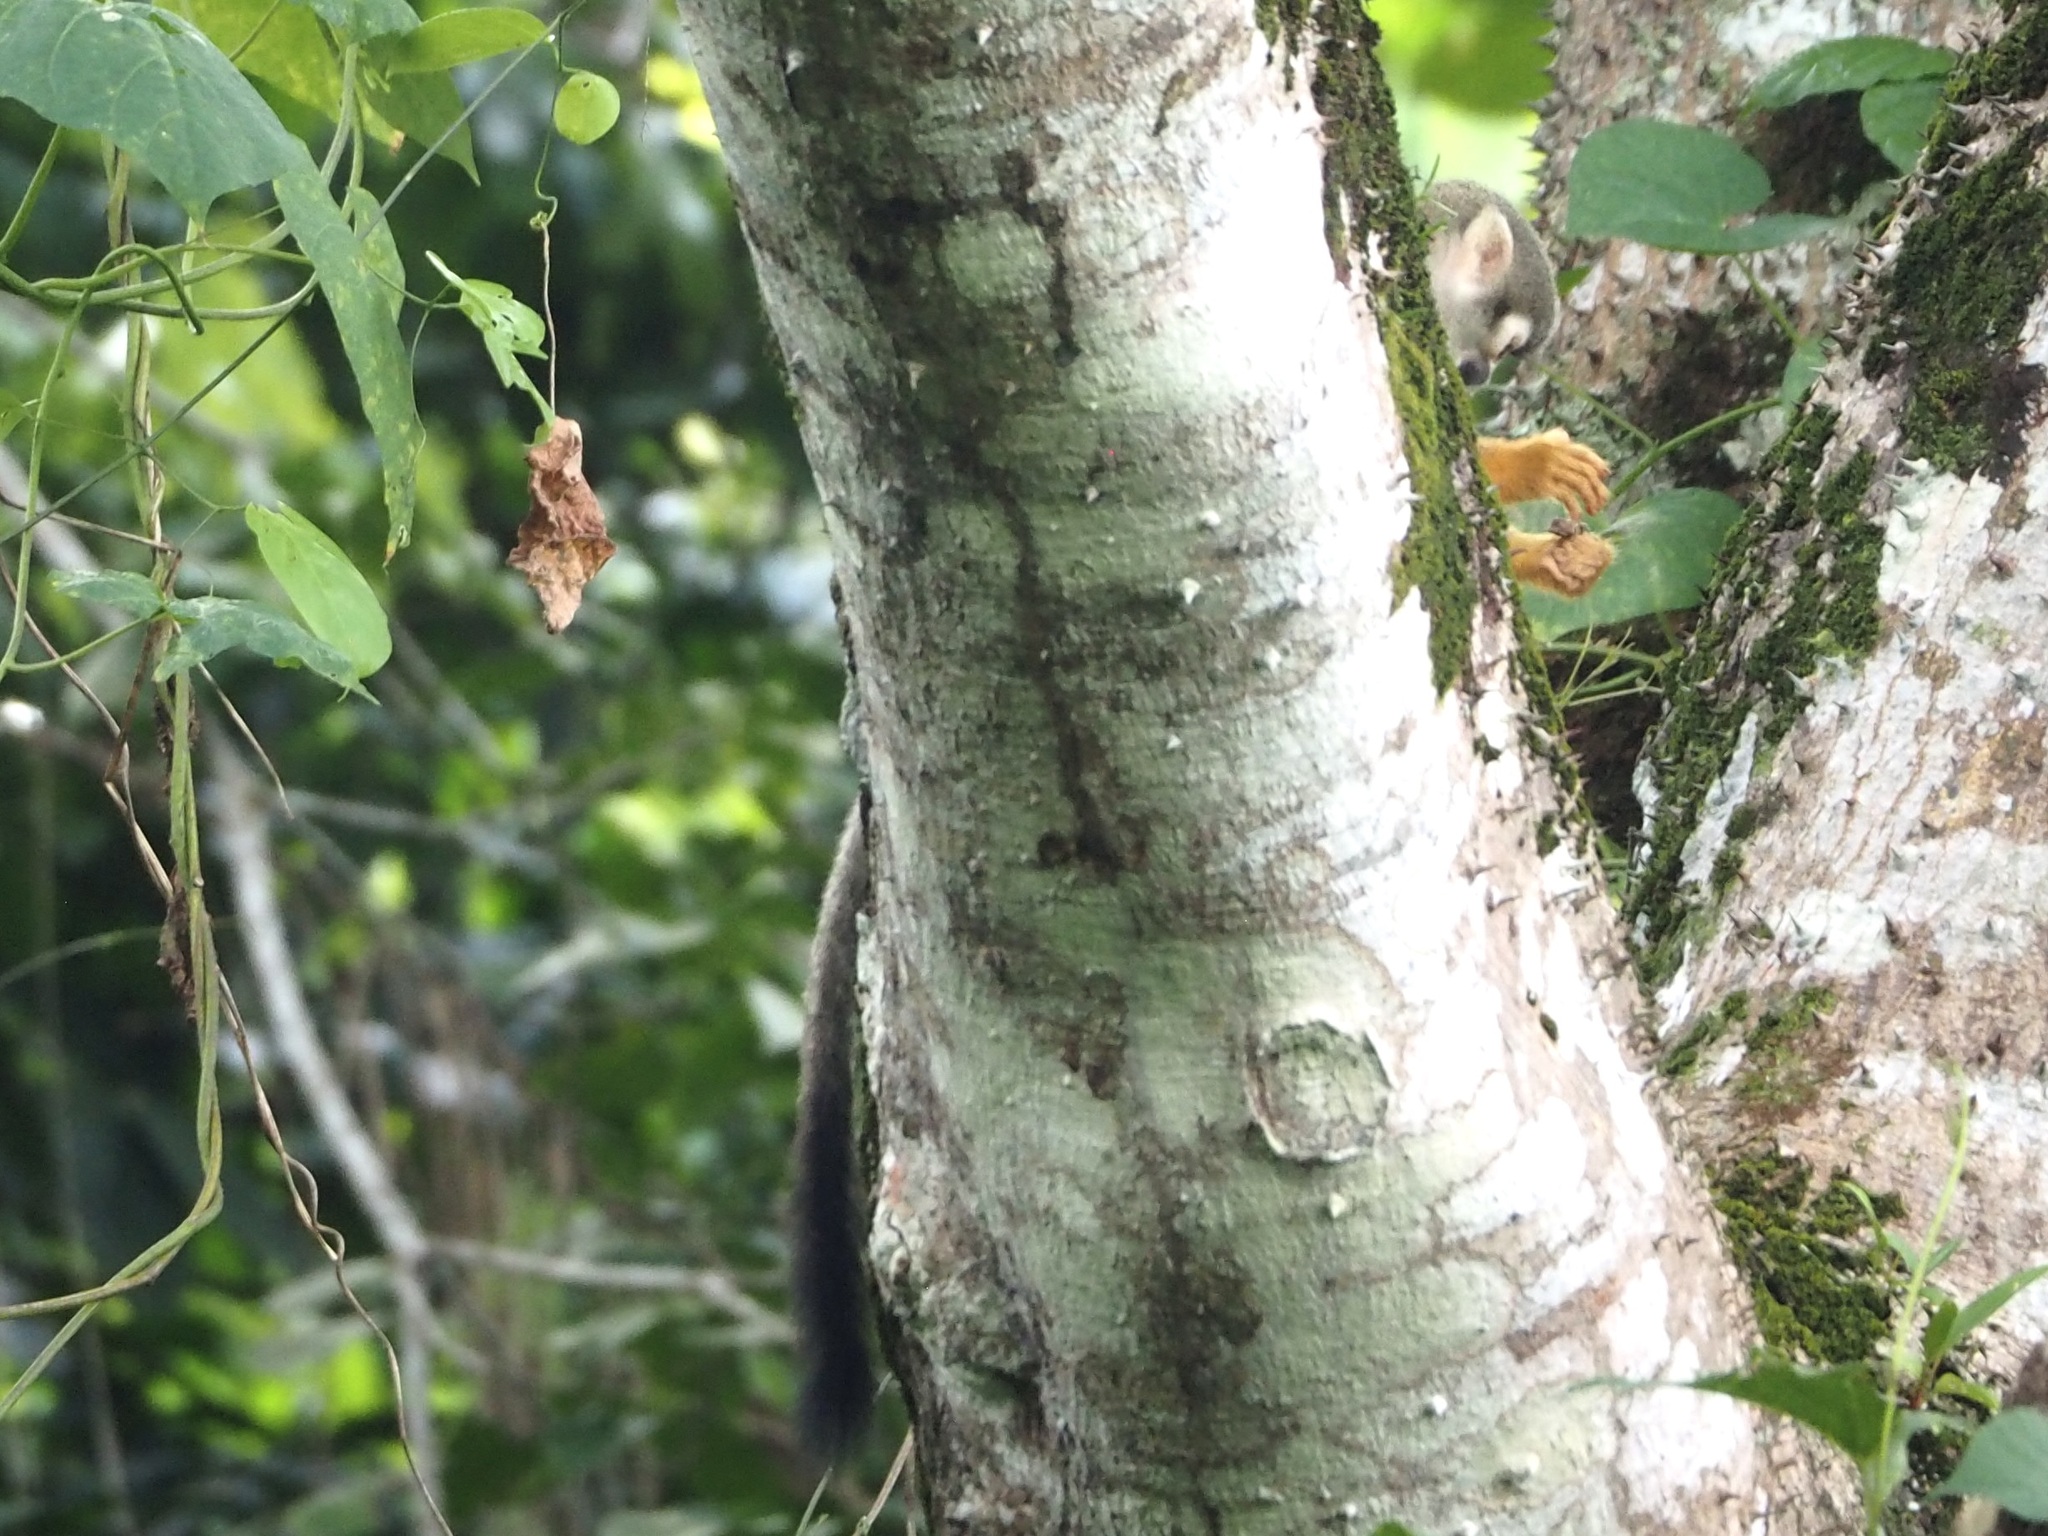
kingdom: Animalia
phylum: Chordata
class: Mammalia
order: Primates
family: Cebidae
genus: Saimiri
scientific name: Saimiri sciureus
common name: Common squirrel monkey
